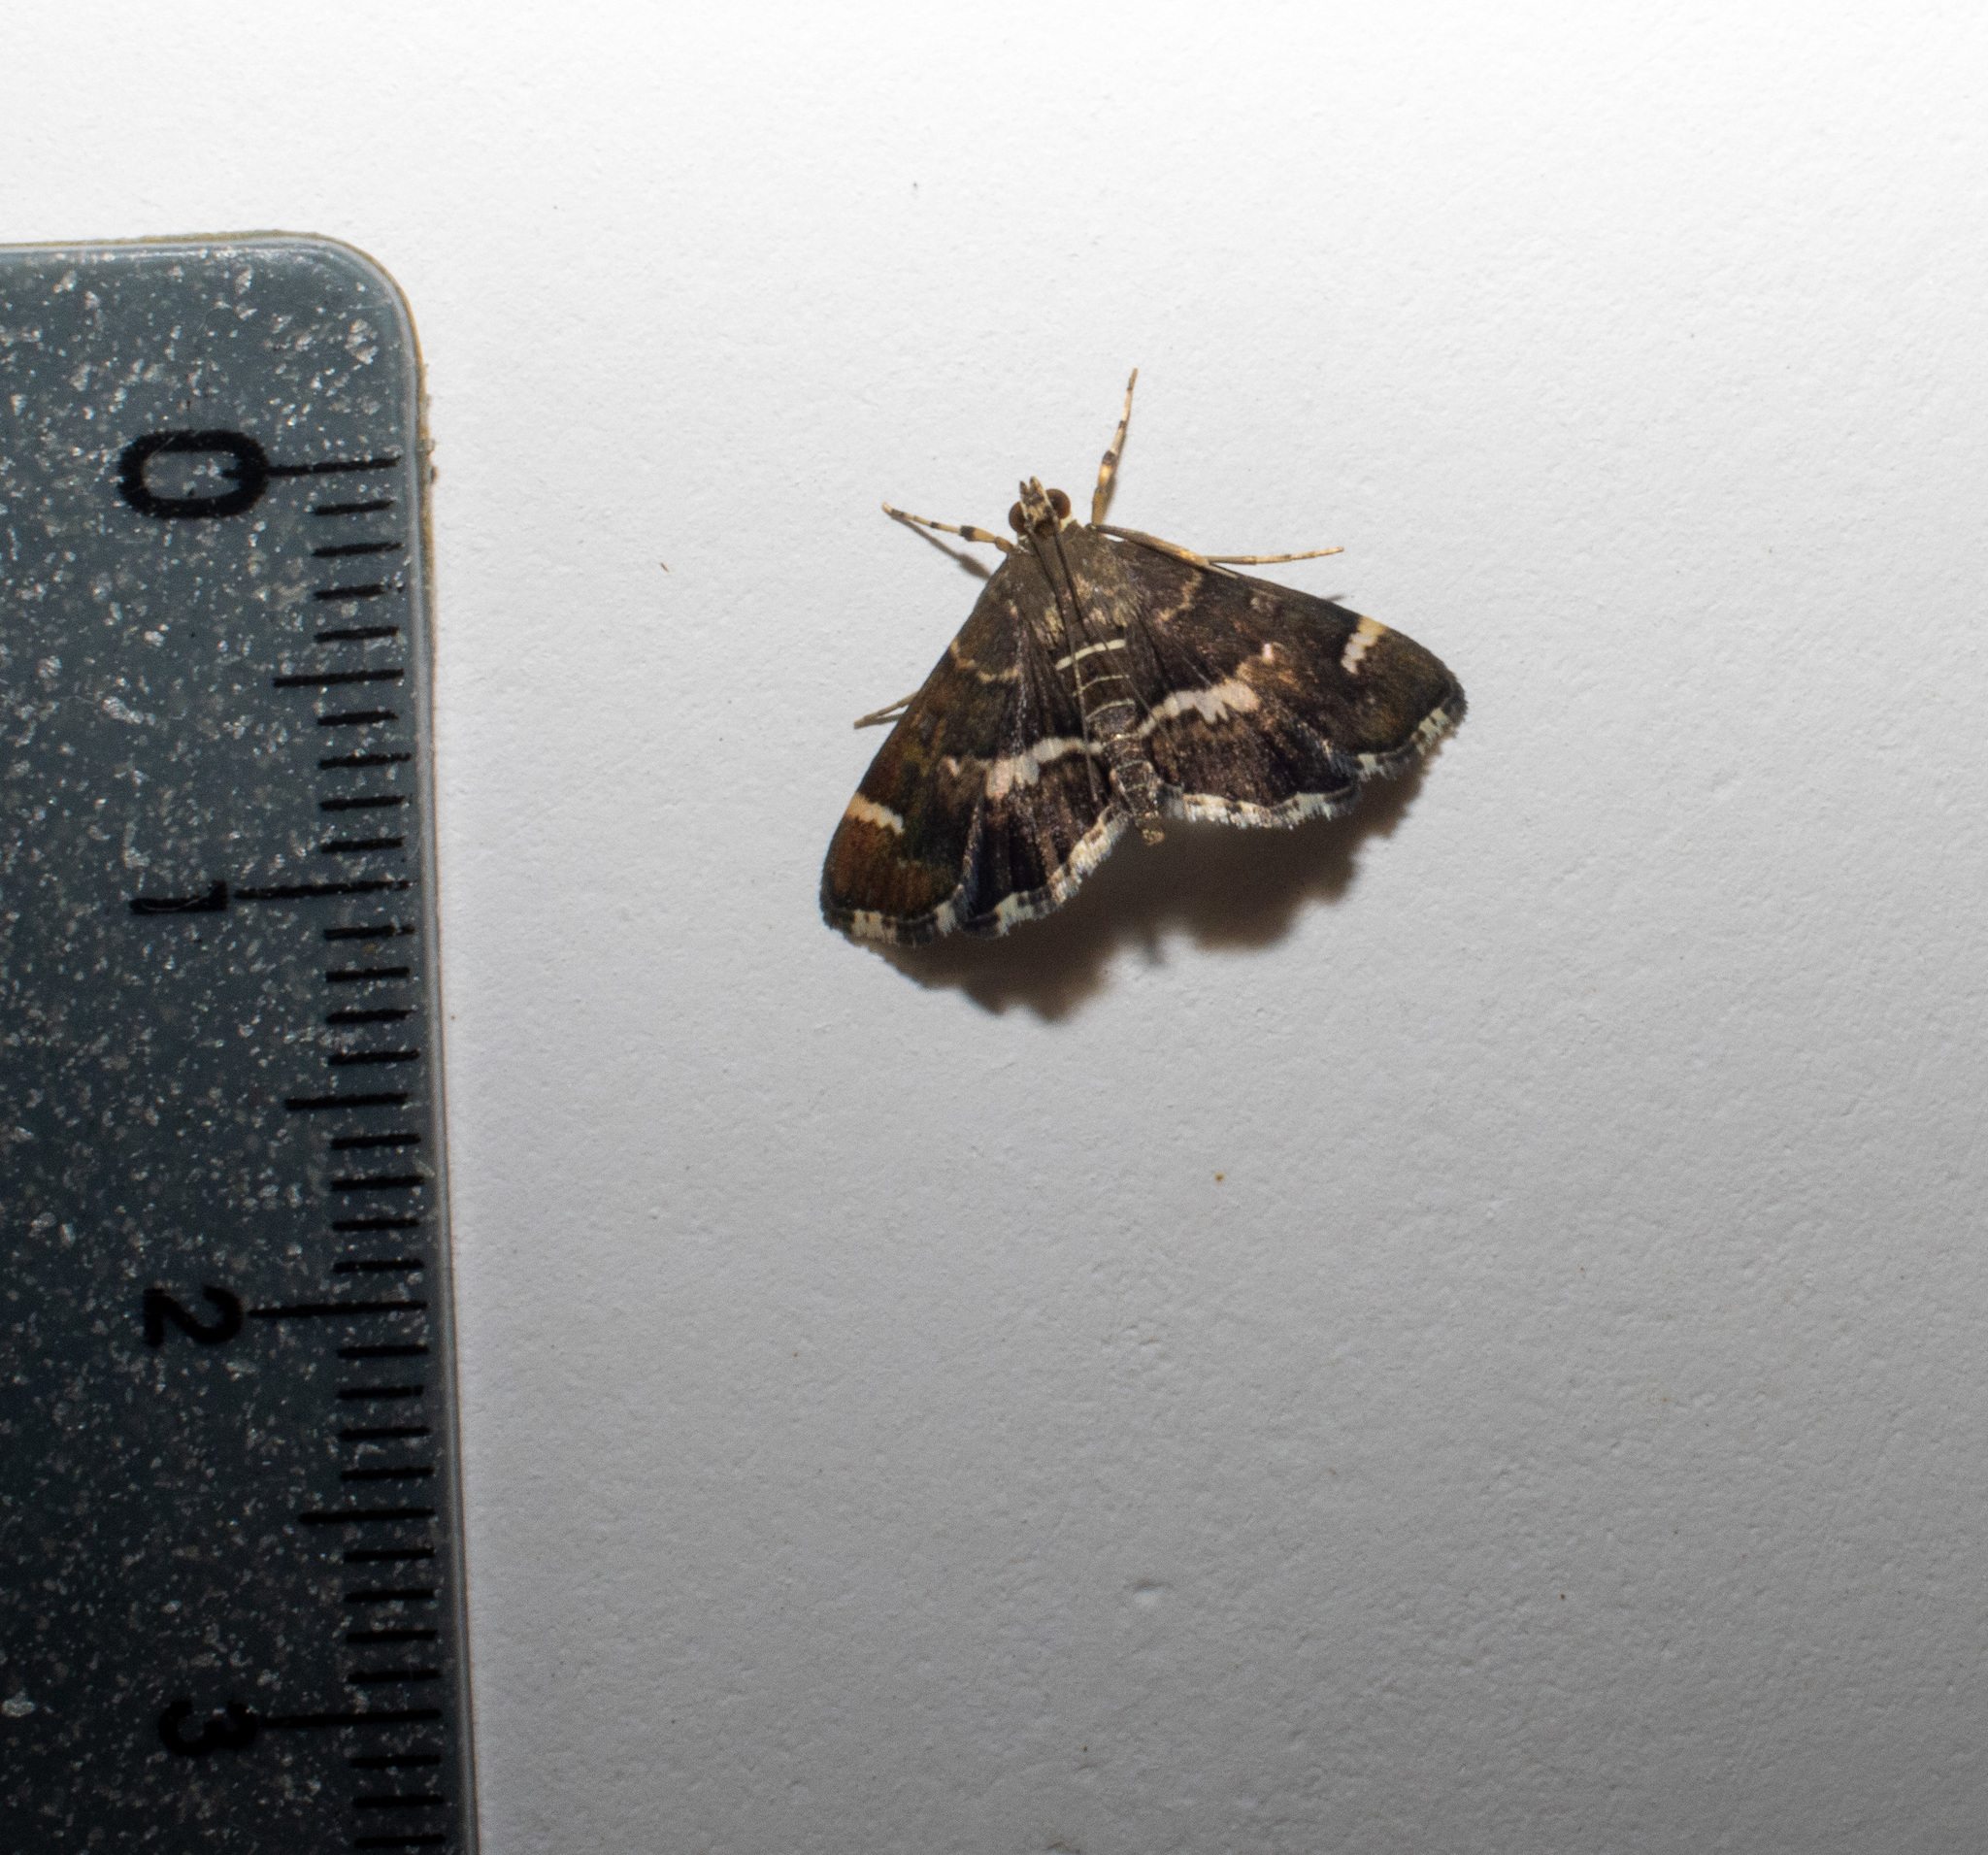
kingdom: Animalia
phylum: Arthropoda
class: Insecta
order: Lepidoptera
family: Crambidae
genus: Hymenia
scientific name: Hymenia perspectalis
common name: Spotted beet webworm
